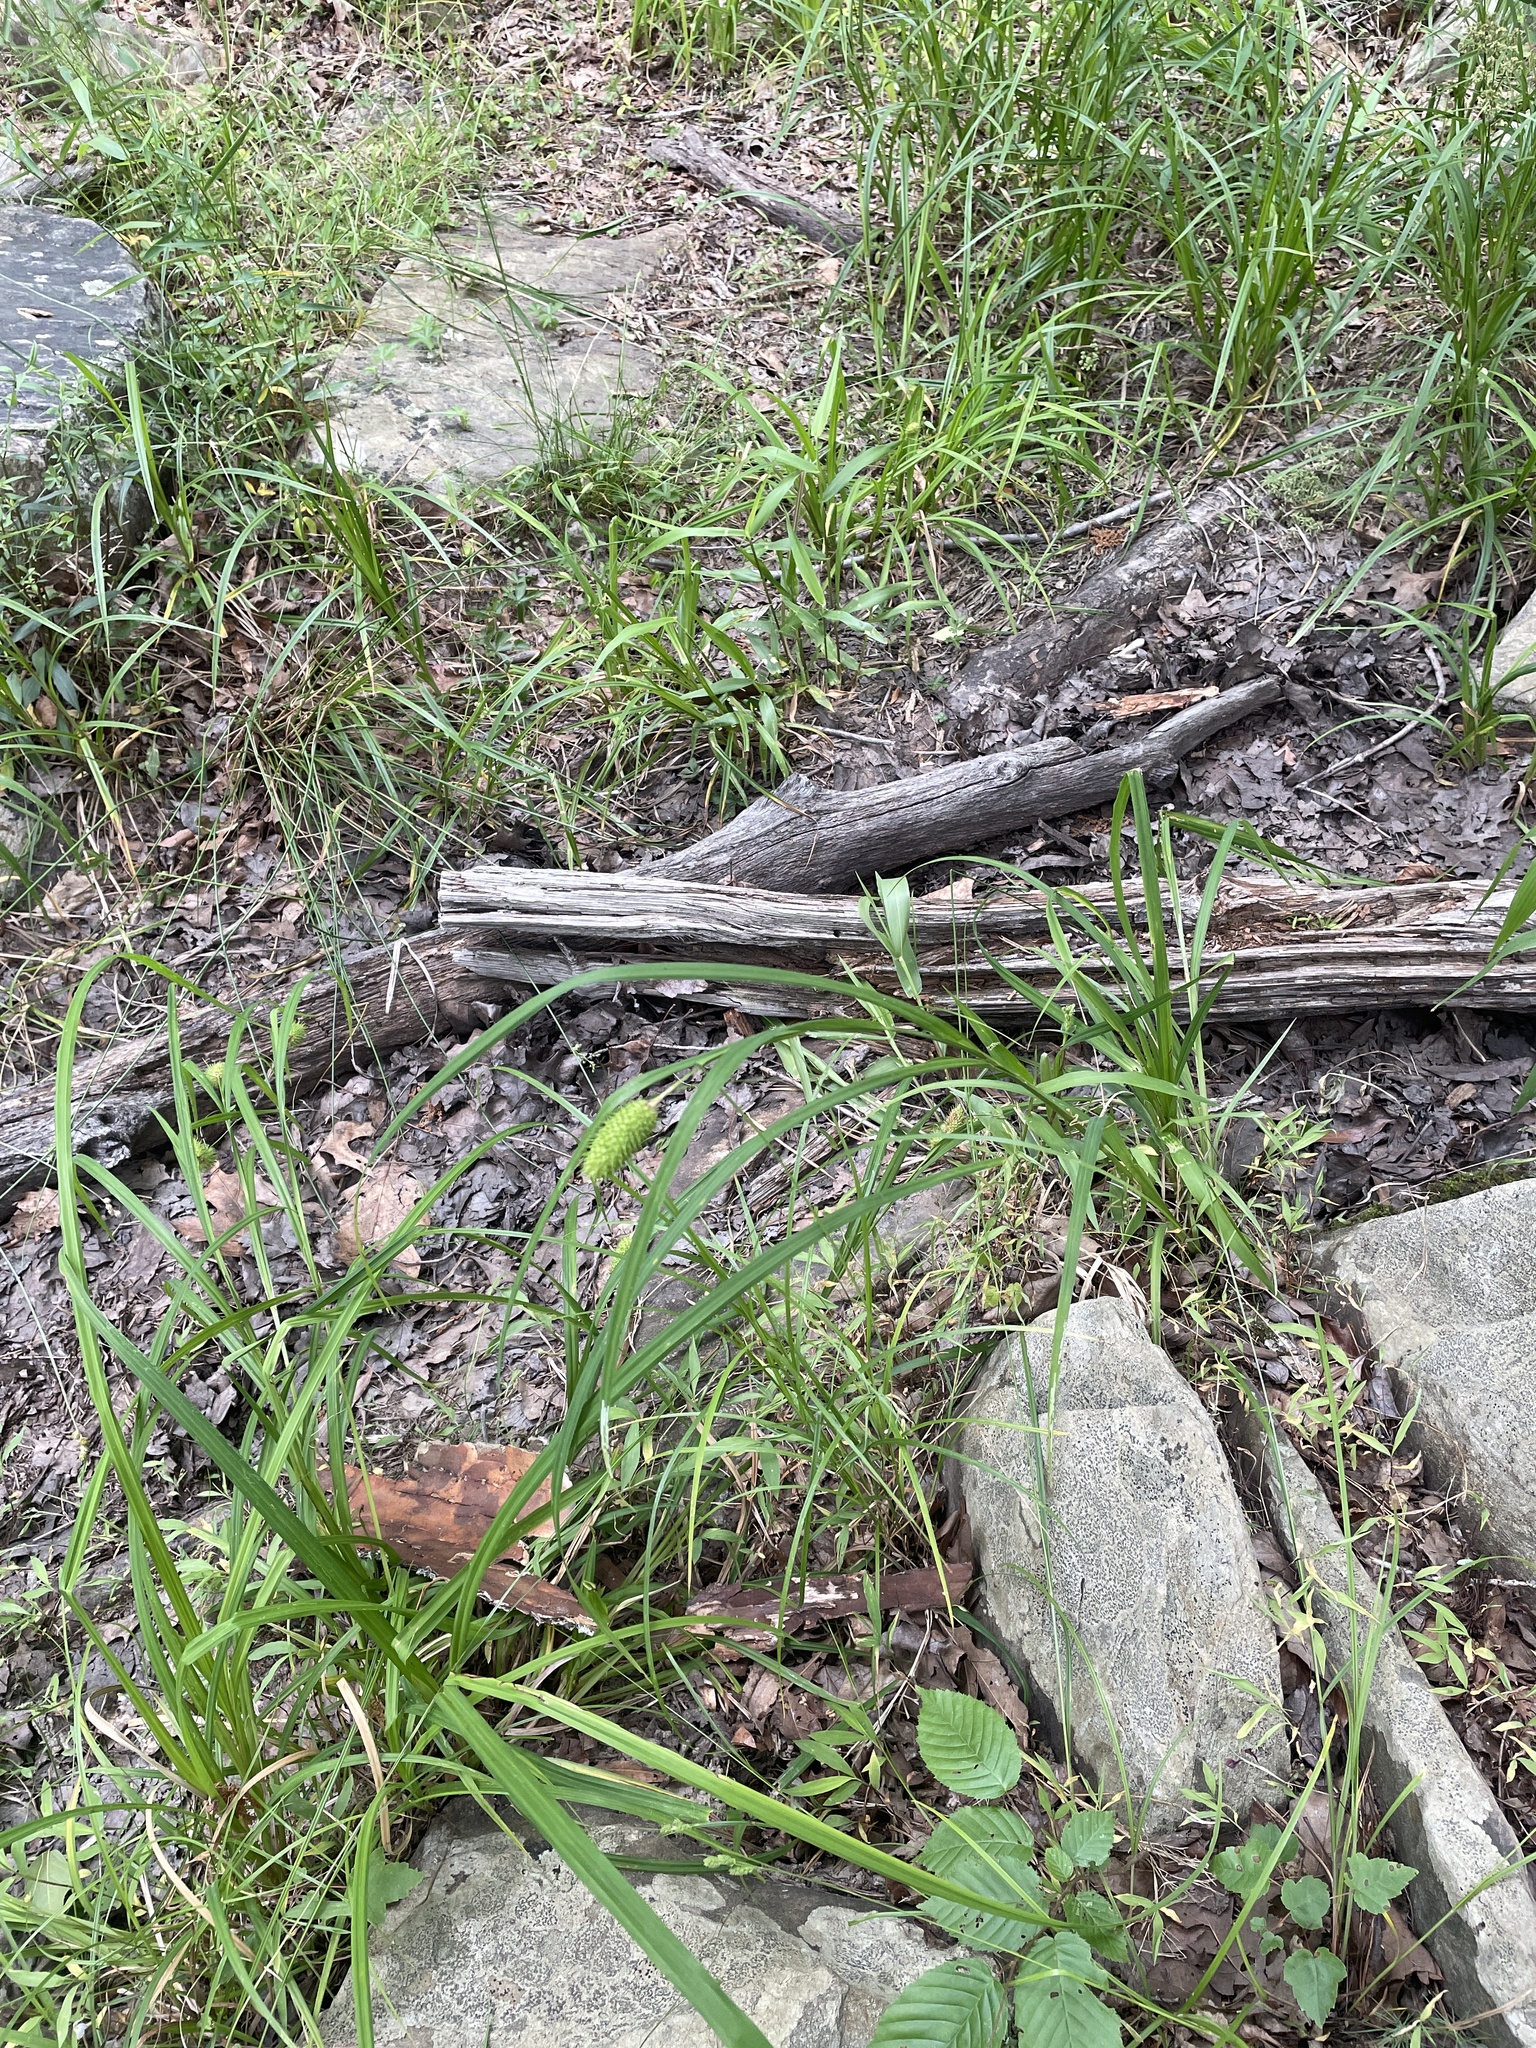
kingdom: Plantae
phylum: Tracheophyta
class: Liliopsida
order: Poales
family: Cyperaceae
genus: Carex
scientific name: Carex typhina
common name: Cattail sedge
